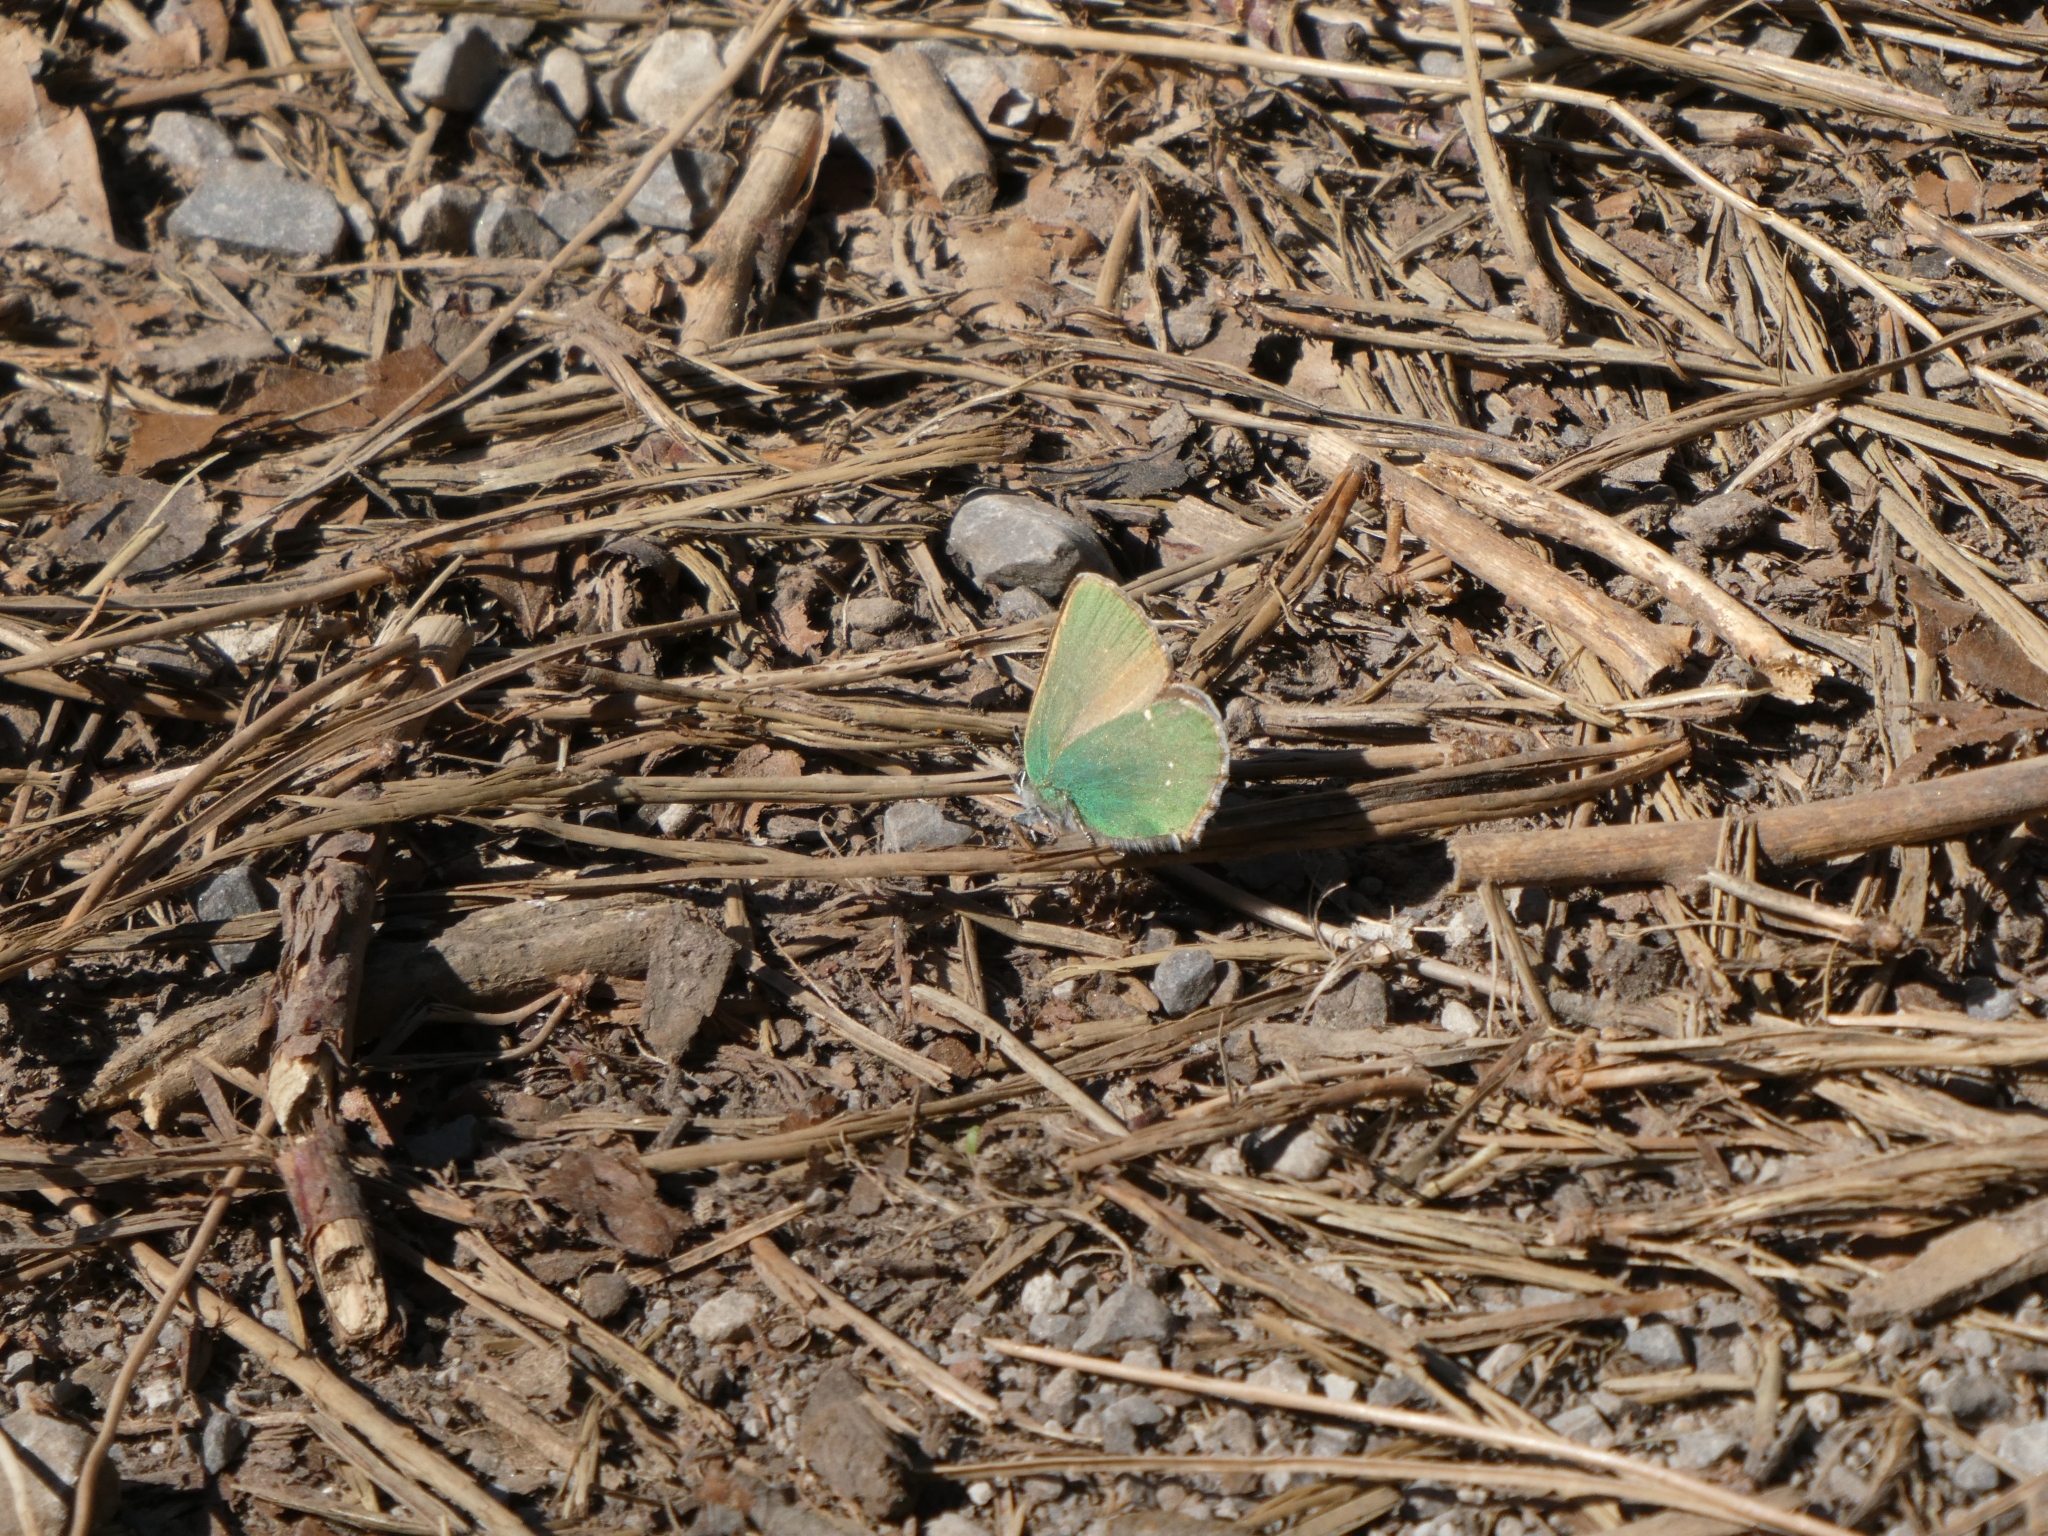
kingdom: Animalia
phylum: Arthropoda
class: Insecta
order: Lepidoptera
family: Lycaenidae
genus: Callophrys
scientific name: Callophrys rubi
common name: Green hairstreak
